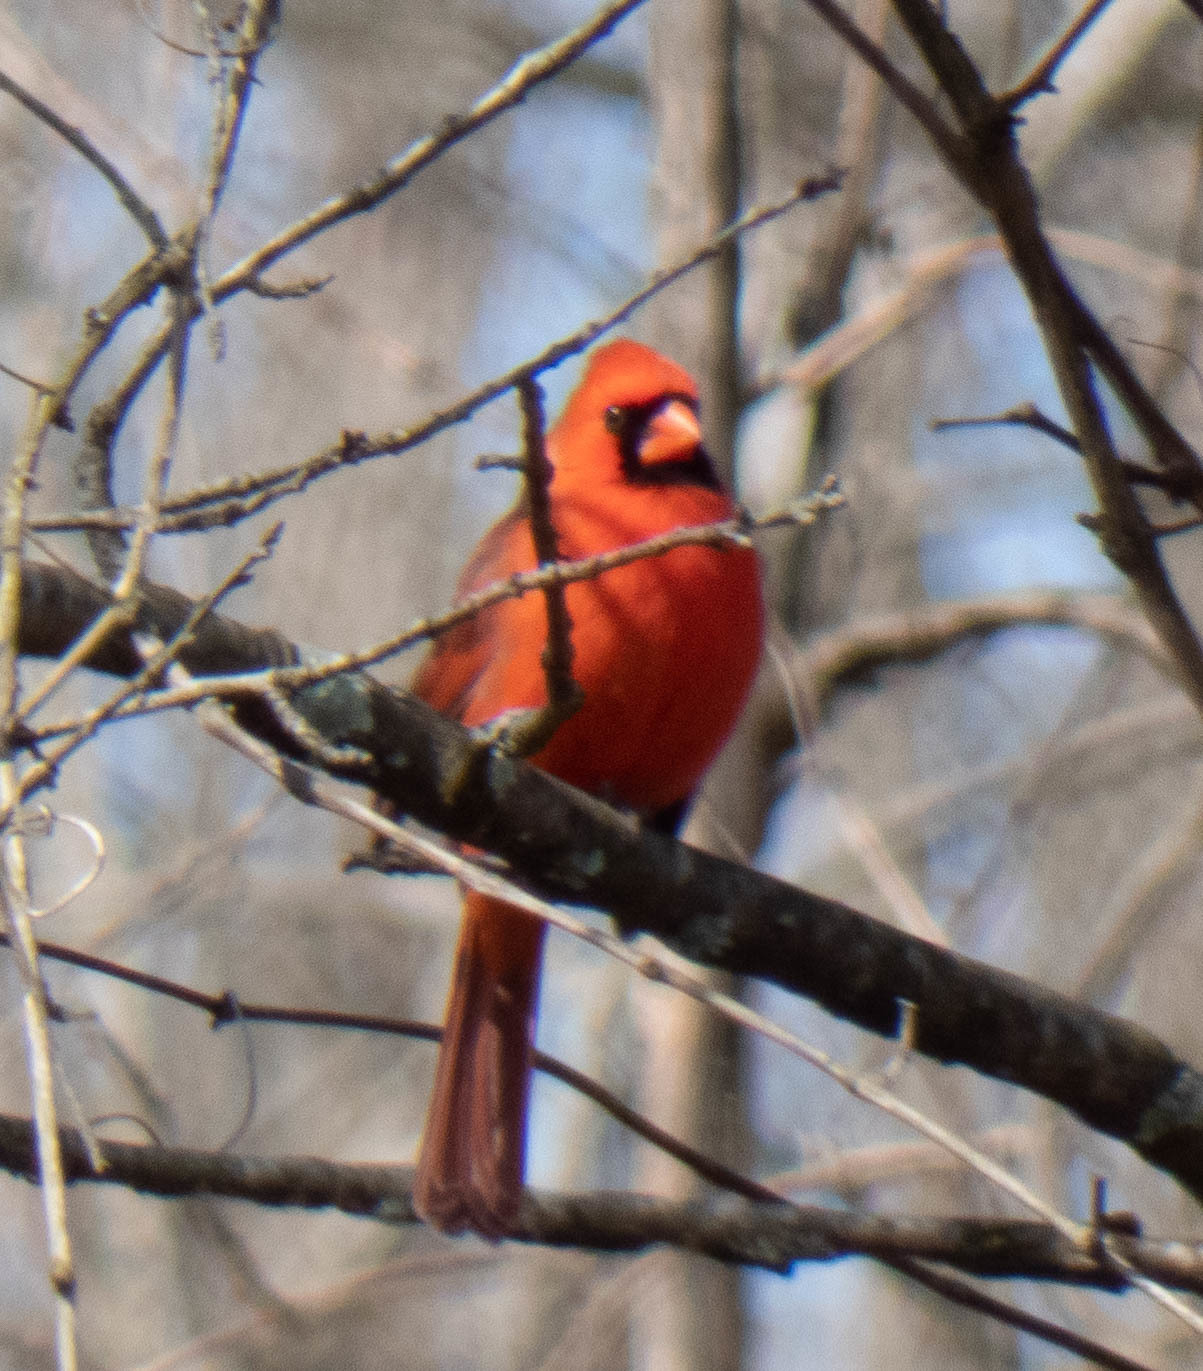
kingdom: Animalia
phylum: Chordata
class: Aves
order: Passeriformes
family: Cardinalidae
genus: Cardinalis
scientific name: Cardinalis cardinalis
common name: Northern cardinal
